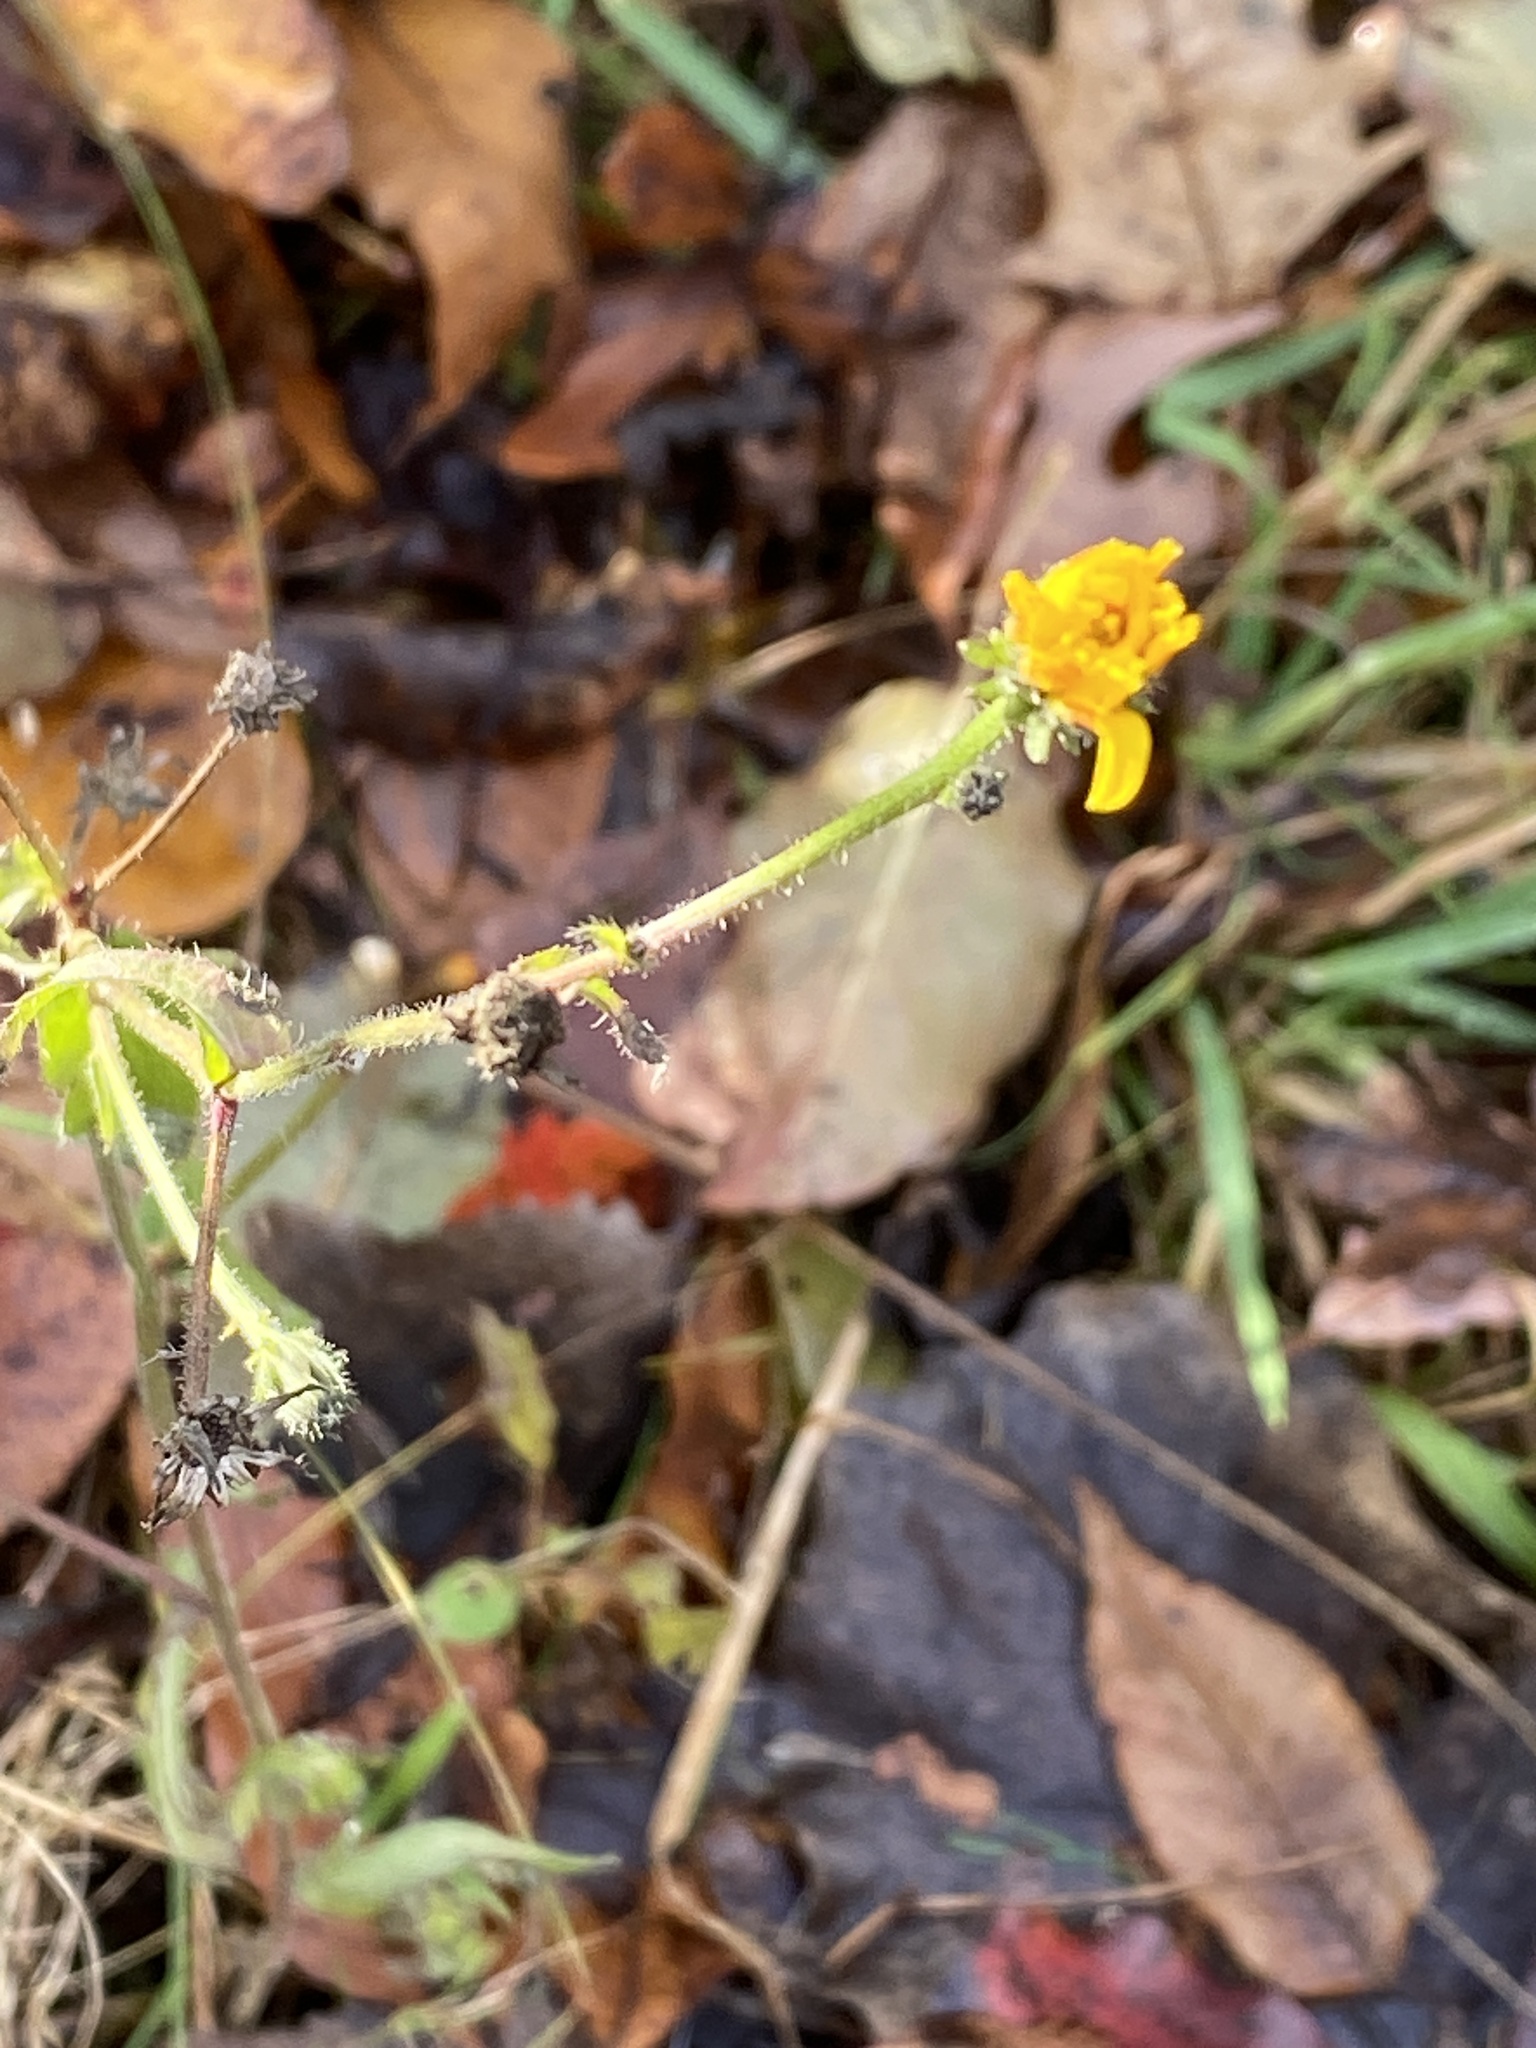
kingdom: Plantae
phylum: Tracheophyta
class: Magnoliopsida
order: Asterales
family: Asteraceae
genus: Picris
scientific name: Picris hieracioides
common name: Hawkweed oxtongue
